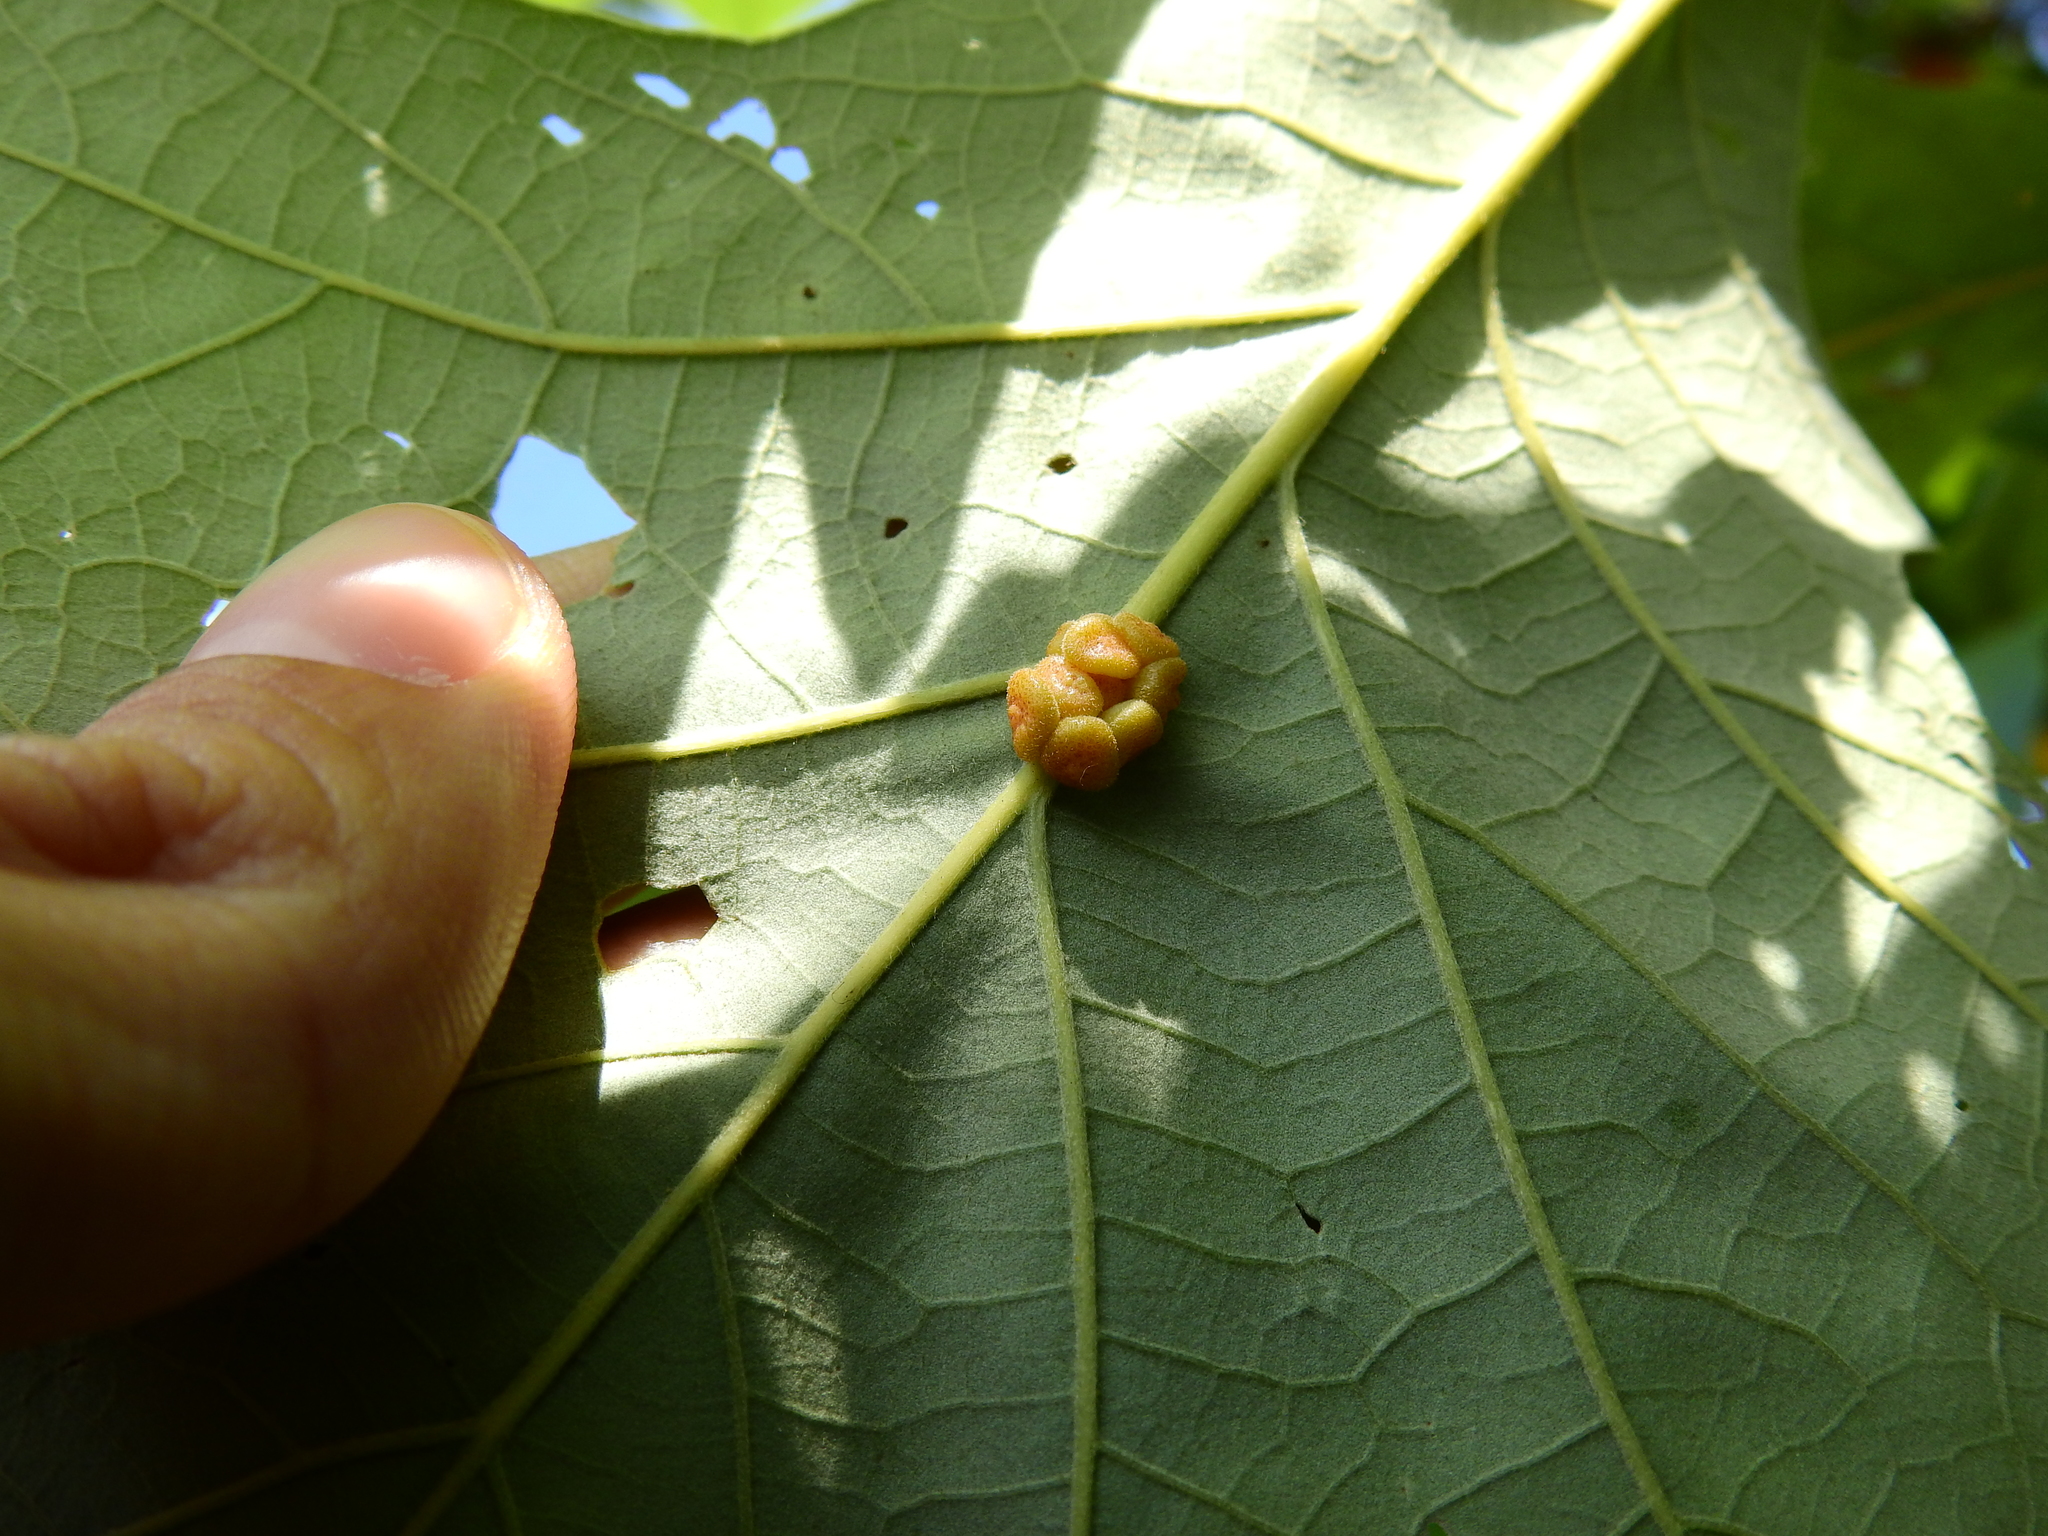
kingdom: Animalia
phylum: Arthropoda
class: Insecta
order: Hymenoptera
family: Cynipidae
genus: Andricus
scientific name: Andricus
